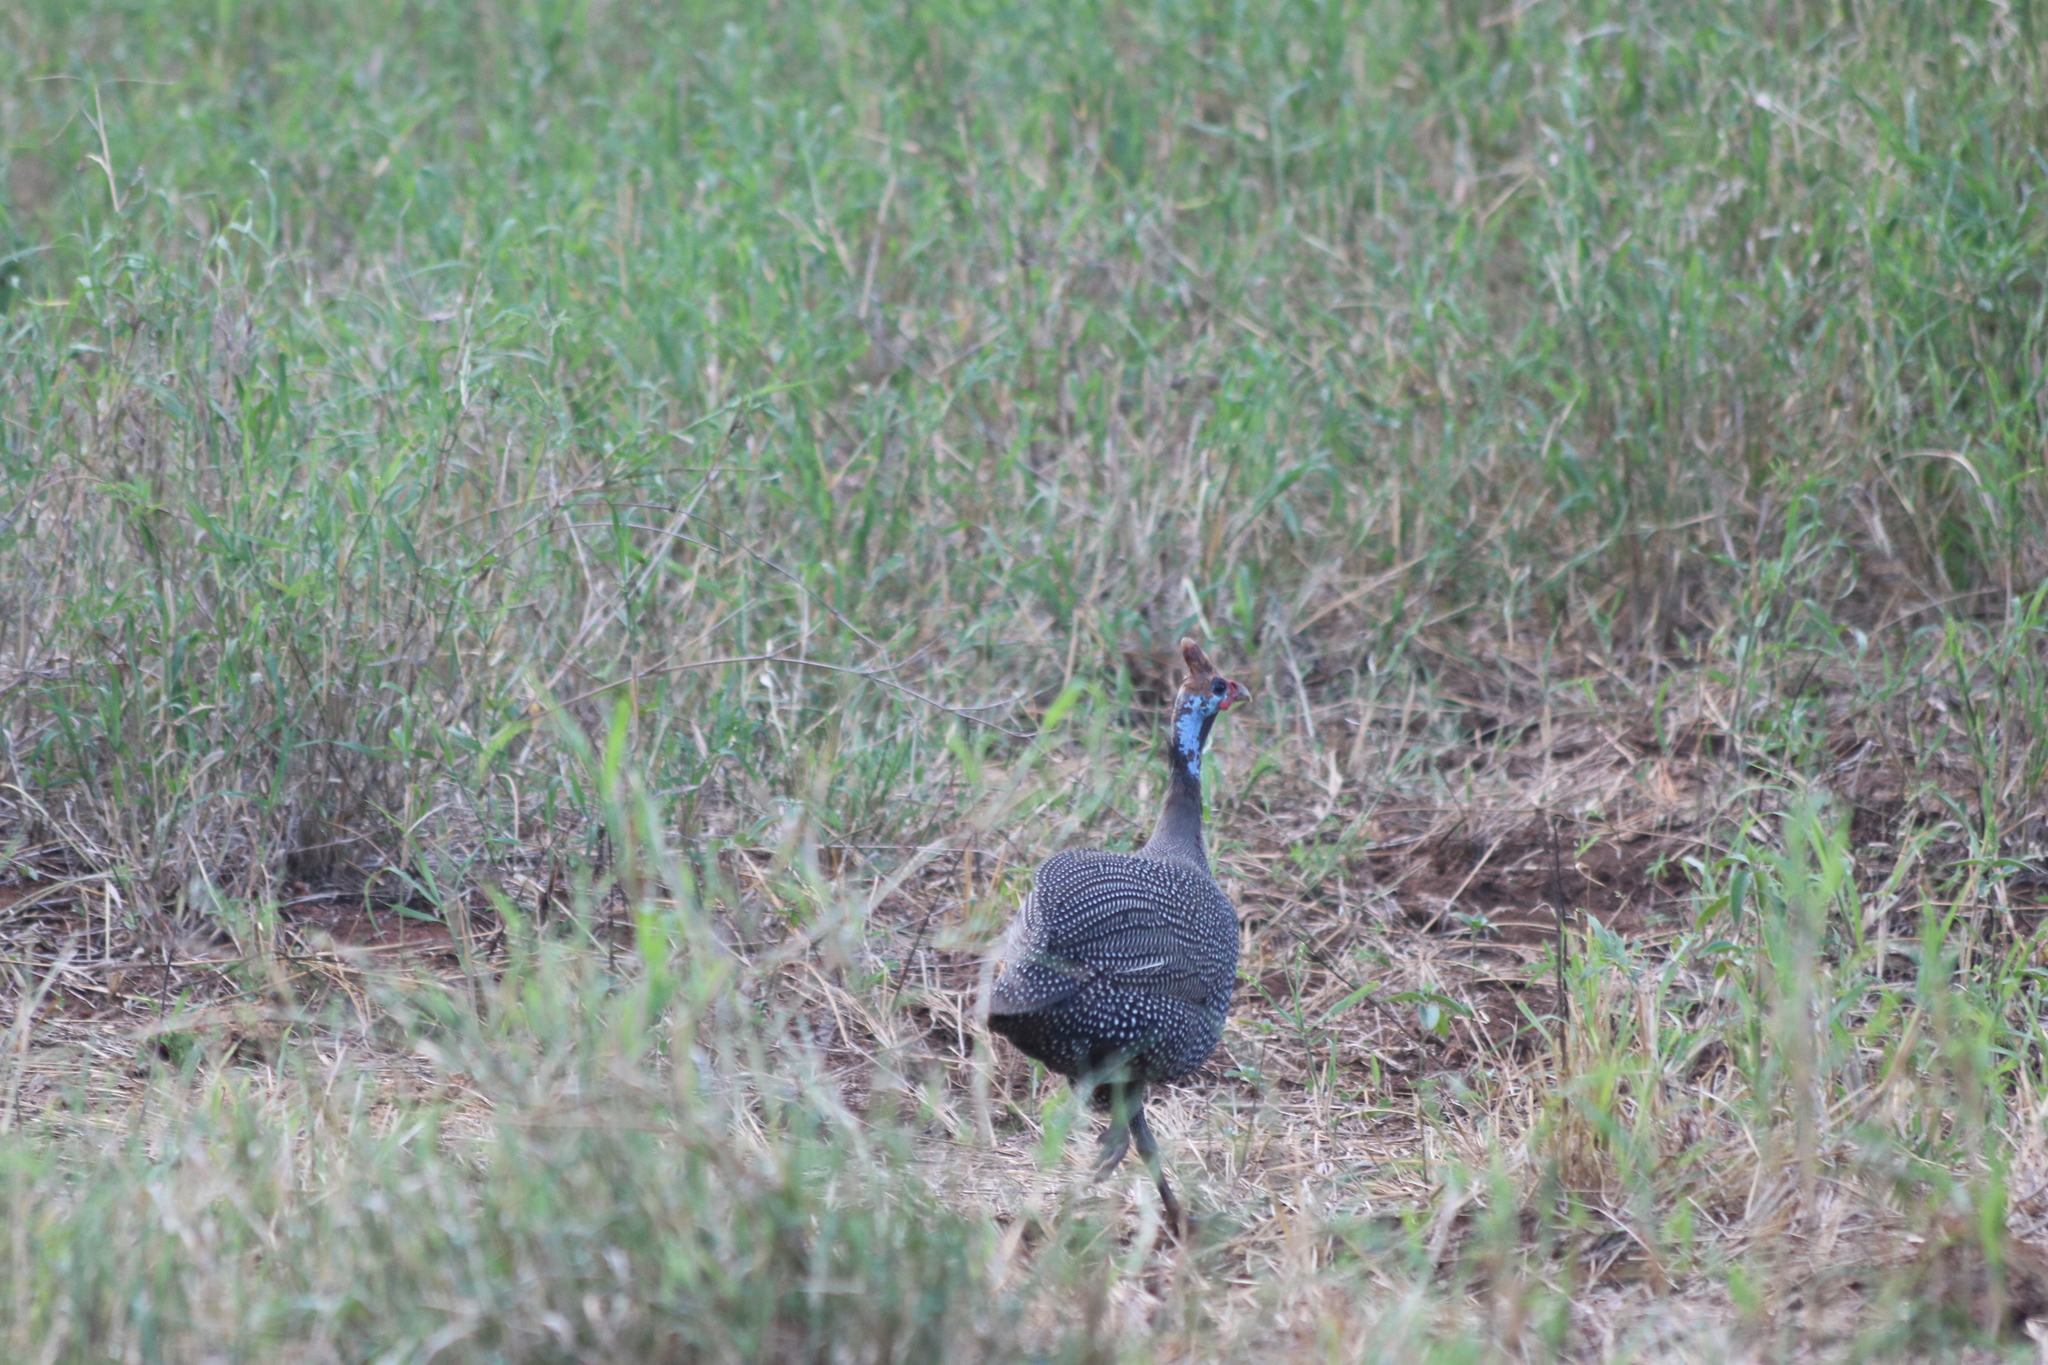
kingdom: Animalia
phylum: Chordata
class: Aves
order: Galliformes
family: Numididae
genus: Numida
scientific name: Numida meleagris
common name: Helmeted guineafowl
